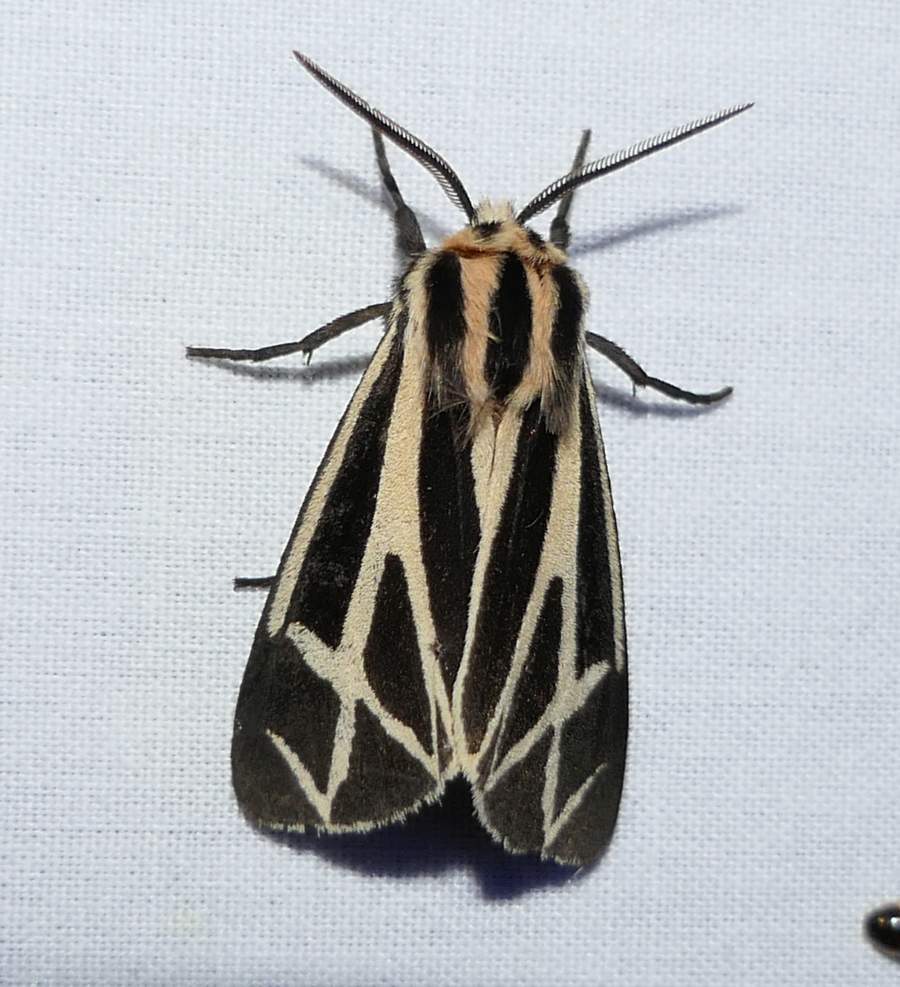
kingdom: Animalia
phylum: Arthropoda
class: Insecta
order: Lepidoptera
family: Erebidae
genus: Apantesis
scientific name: Apantesis phalerata
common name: Harnessed tiger moth
